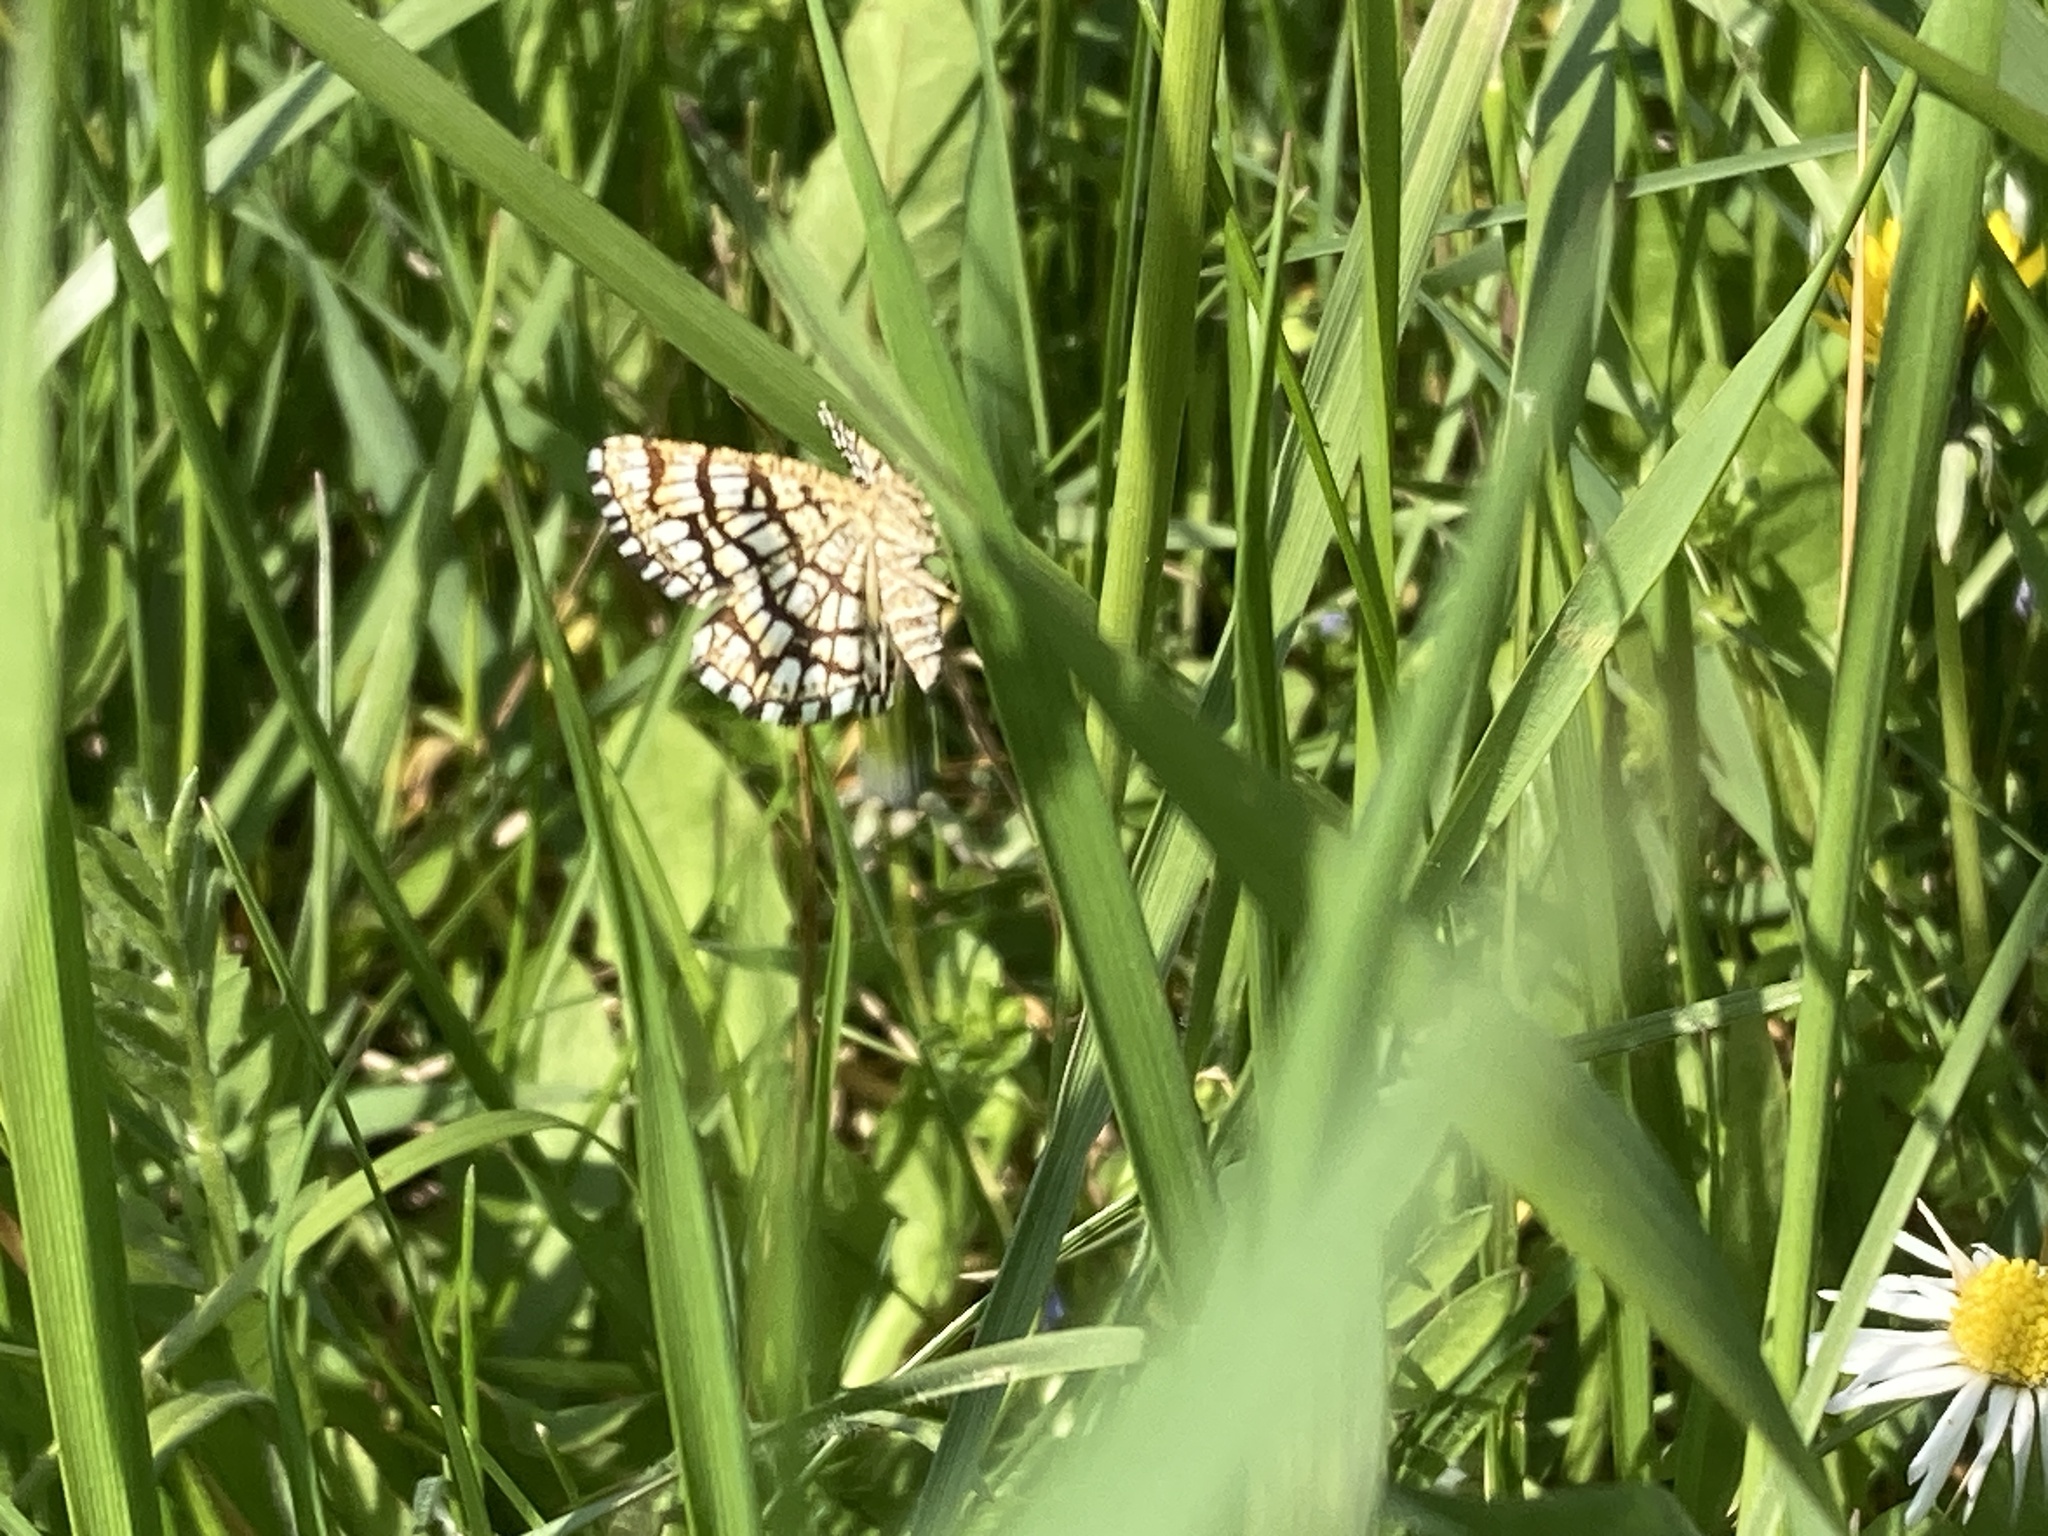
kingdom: Animalia
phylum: Arthropoda
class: Insecta
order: Lepidoptera
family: Geometridae
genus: Chiasmia
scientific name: Chiasmia clathrata
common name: Latticed heath
